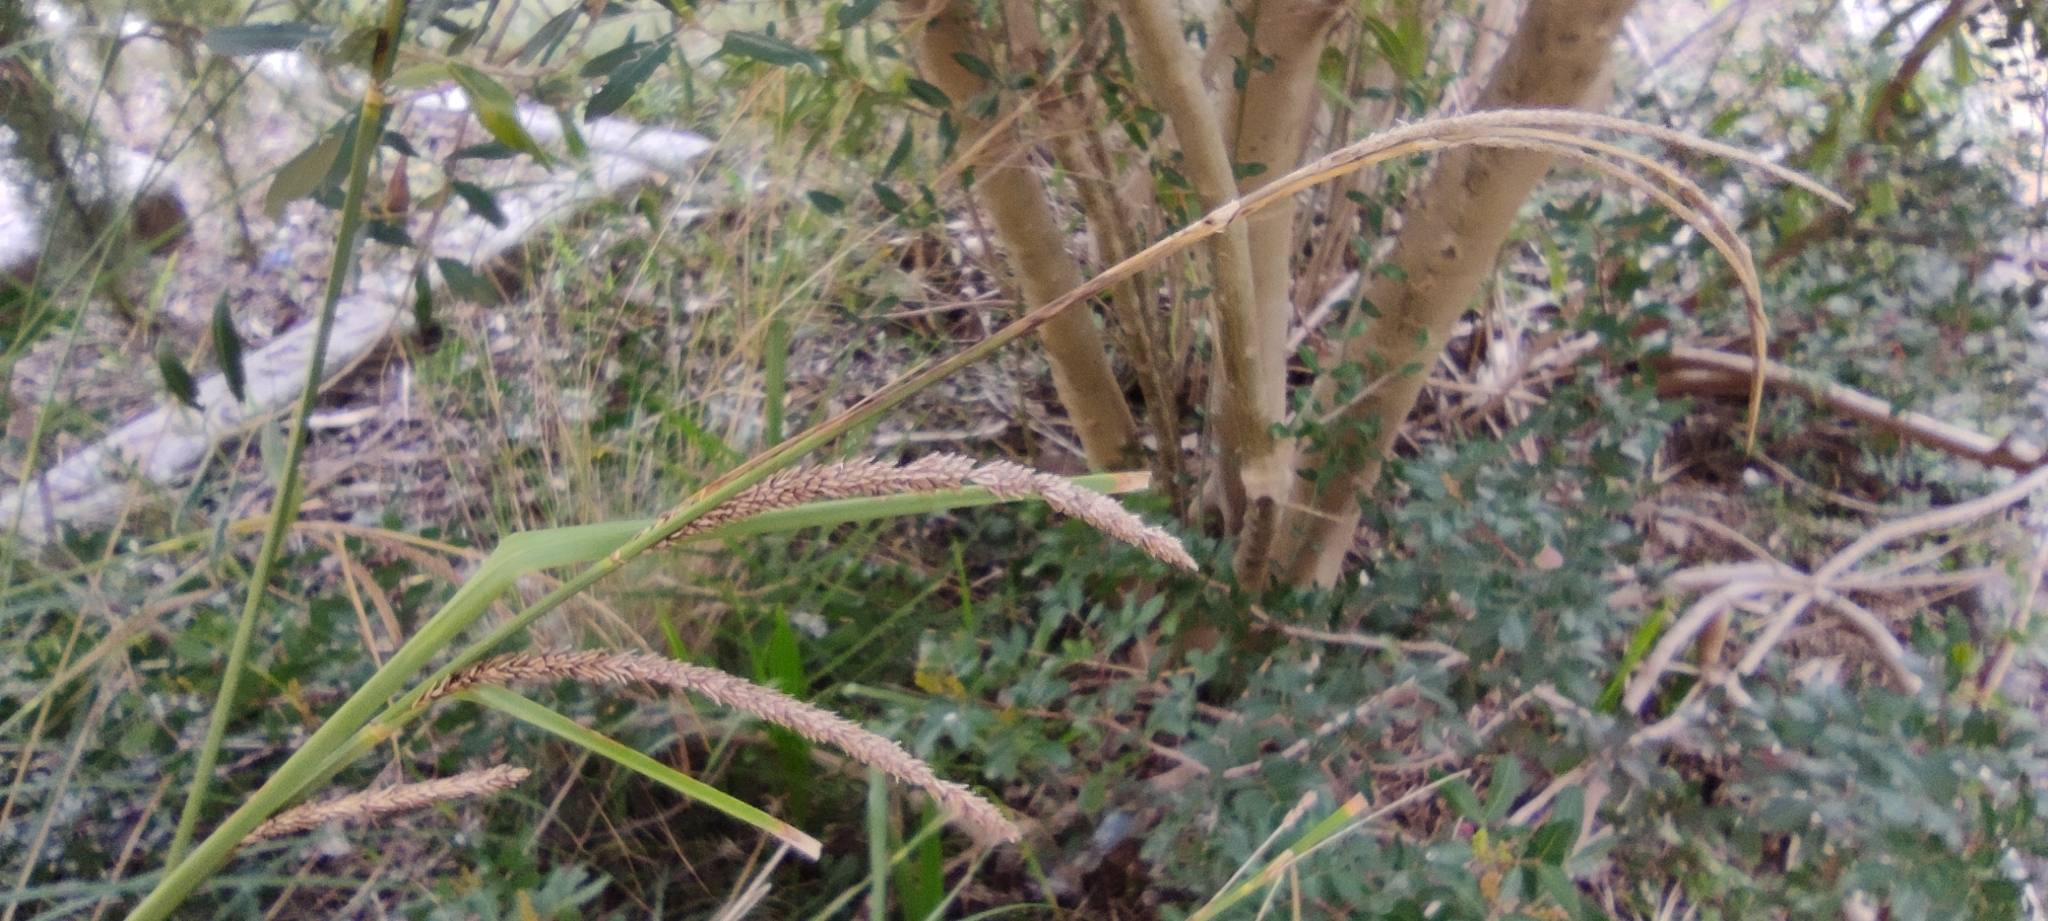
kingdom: Plantae
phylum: Tracheophyta
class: Liliopsida
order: Poales
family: Cyperaceae
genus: Carex
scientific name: Carex hispida
